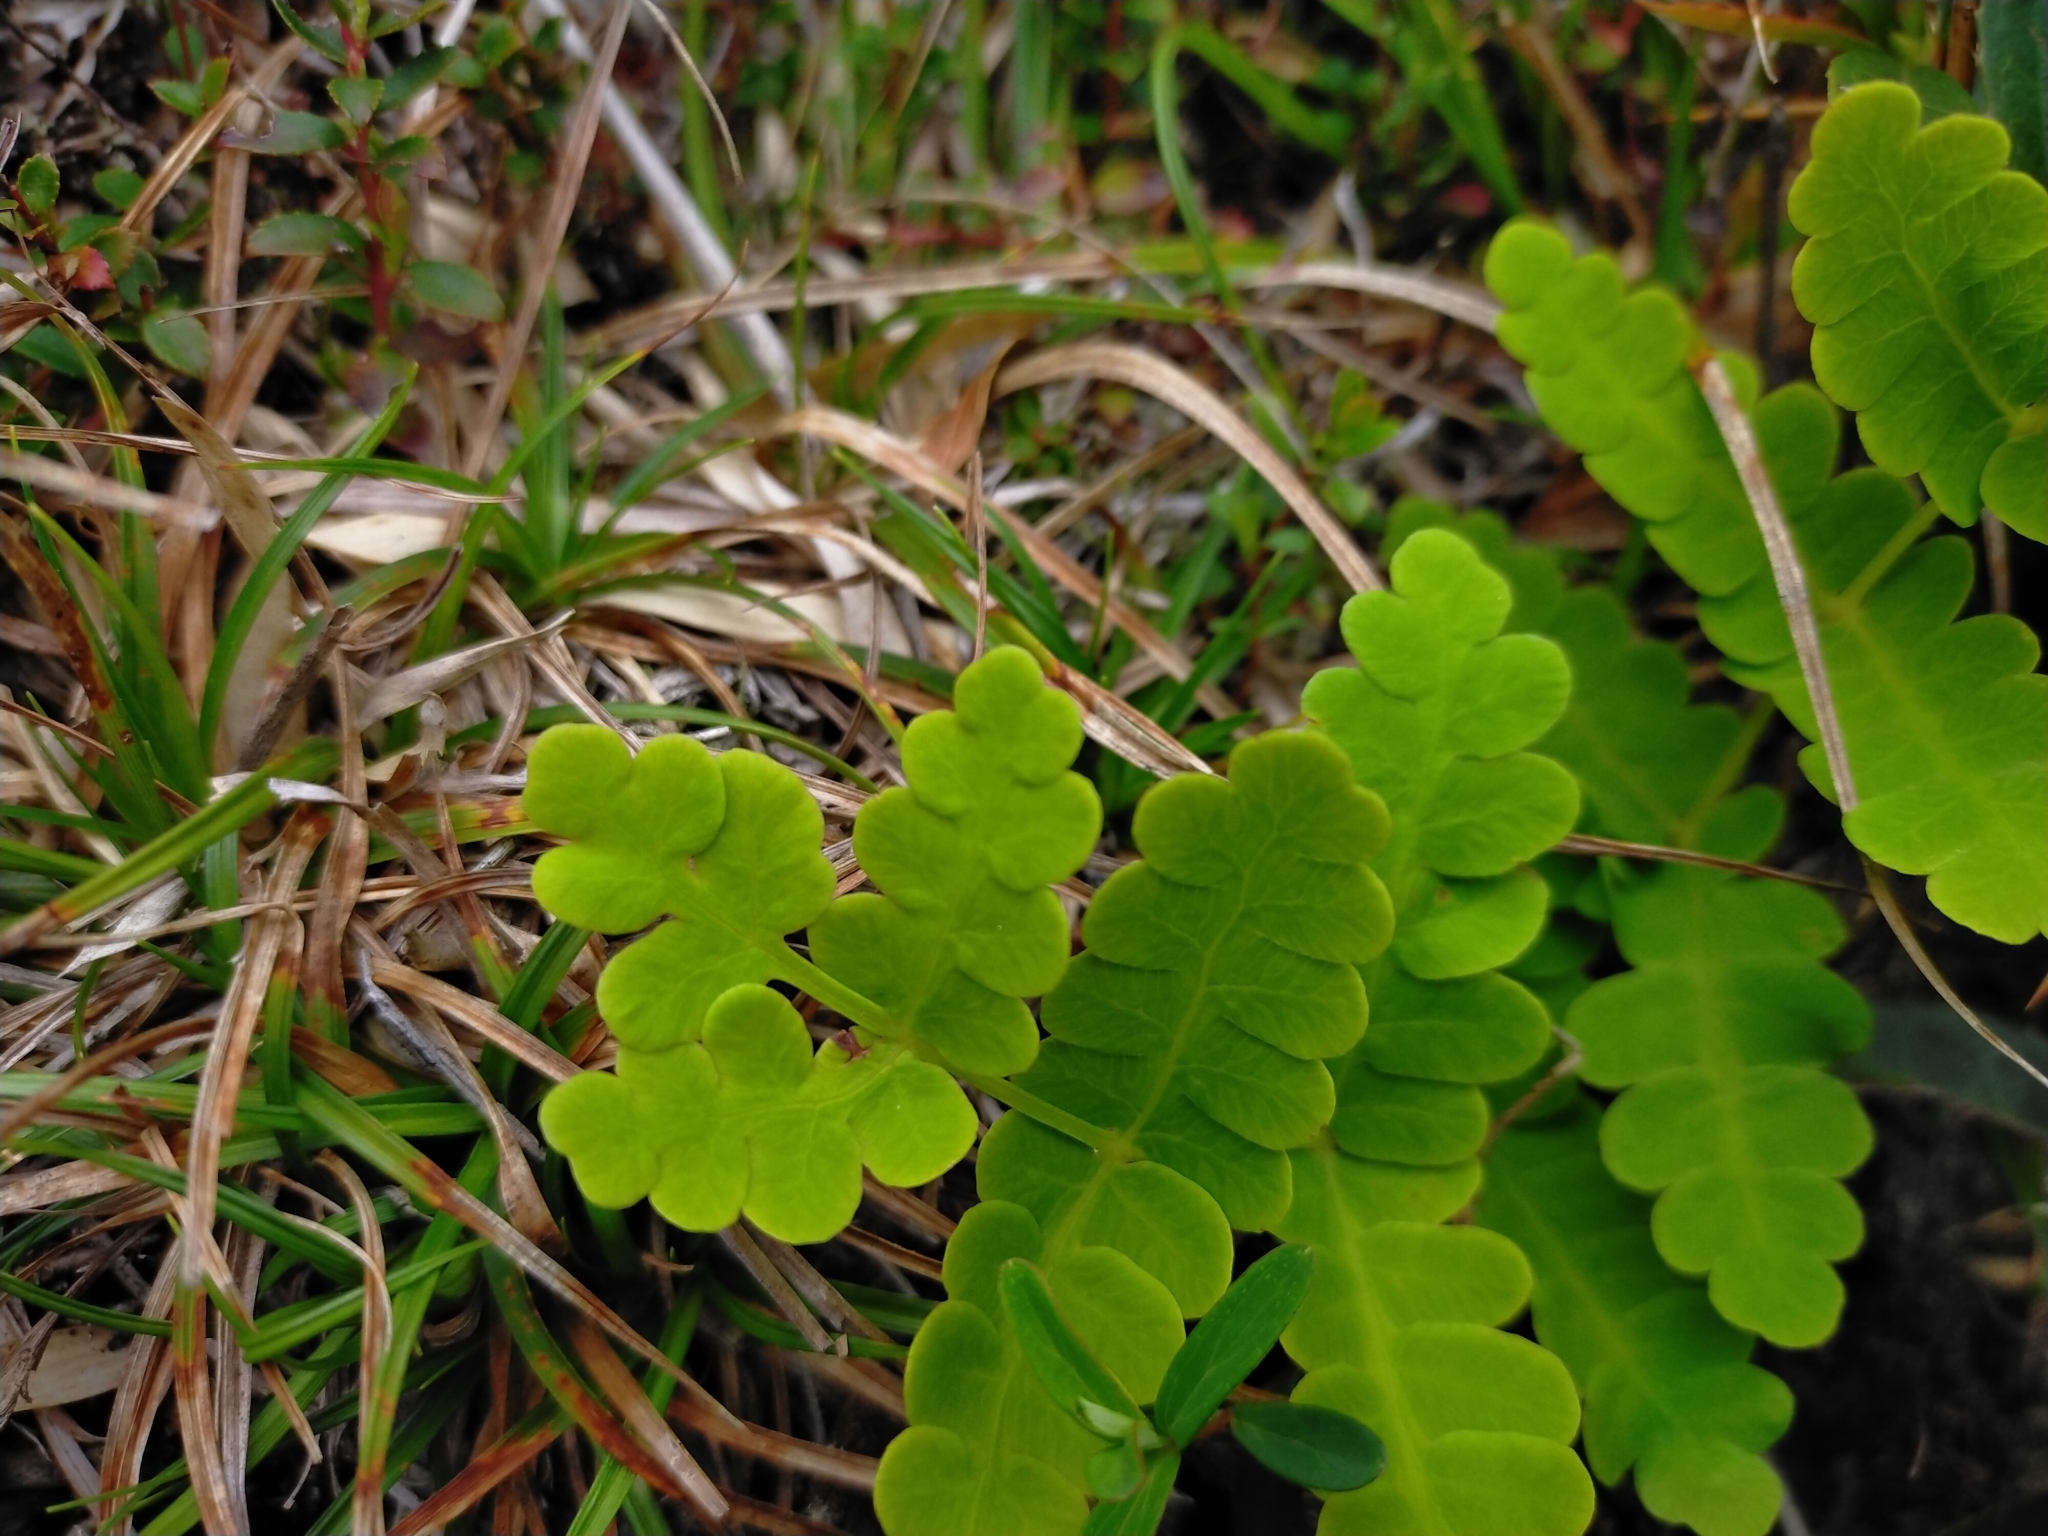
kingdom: Plantae
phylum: Tracheophyta
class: Polypodiopsida
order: Osmundales
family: Osmundaceae
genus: Claytosmunda
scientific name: Claytosmunda claytoniana
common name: Clayton's fern
